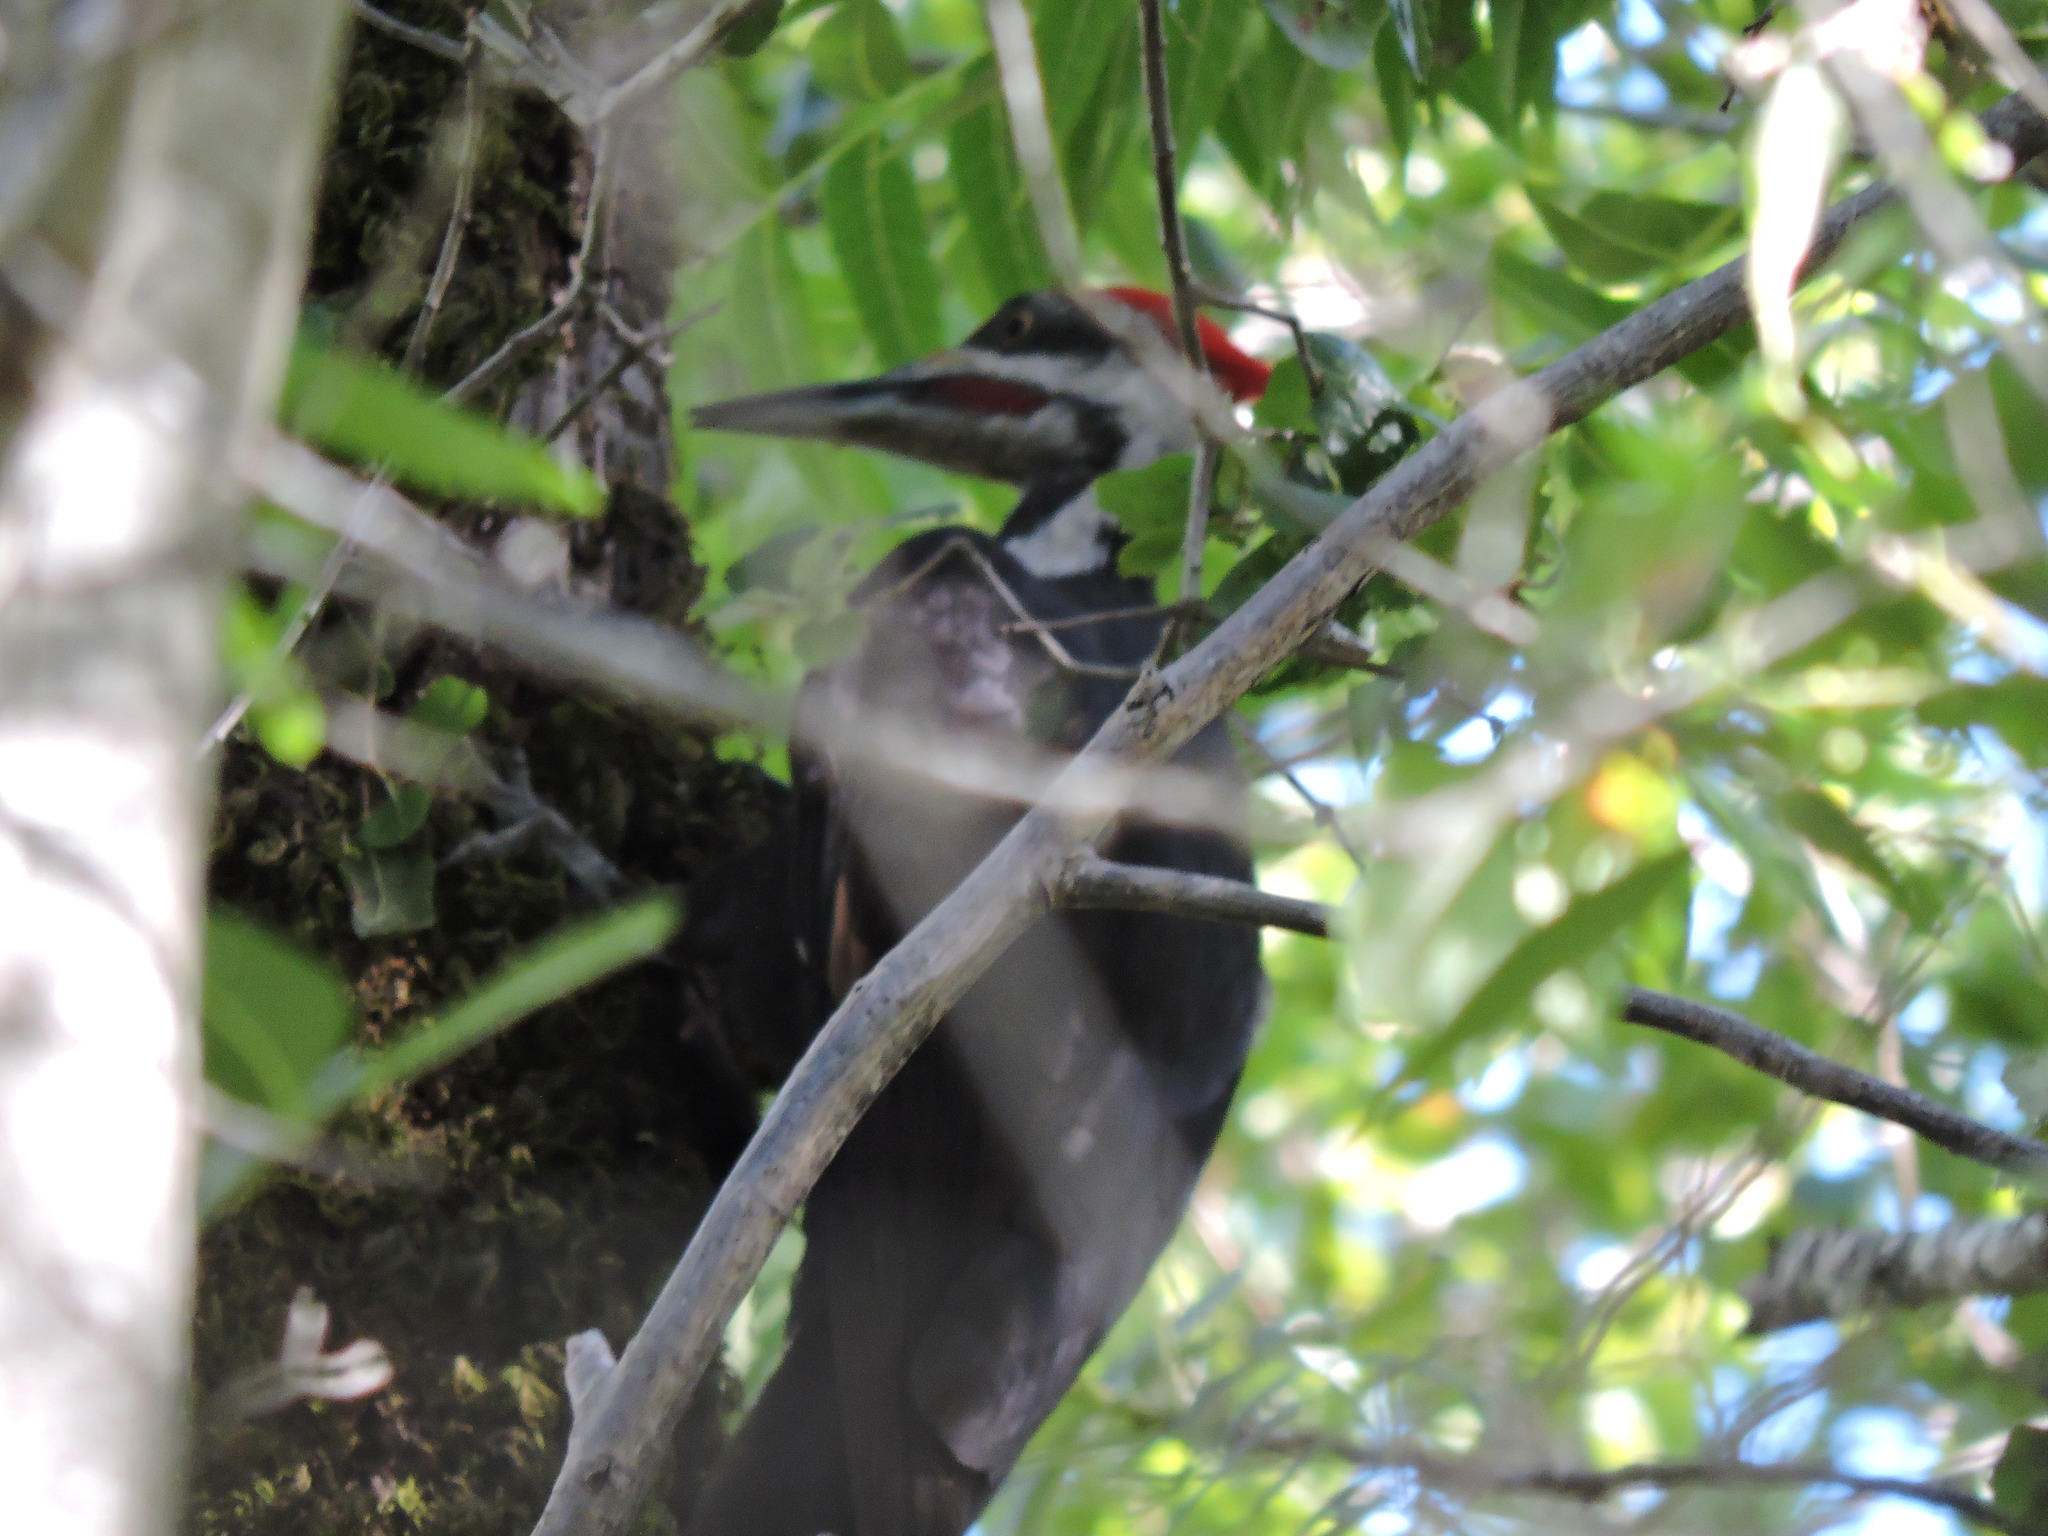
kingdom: Animalia
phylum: Chordata
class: Aves
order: Piciformes
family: Picidae
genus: Dryocopus
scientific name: Dryocopus pileatus
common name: Pileated woodpecker
